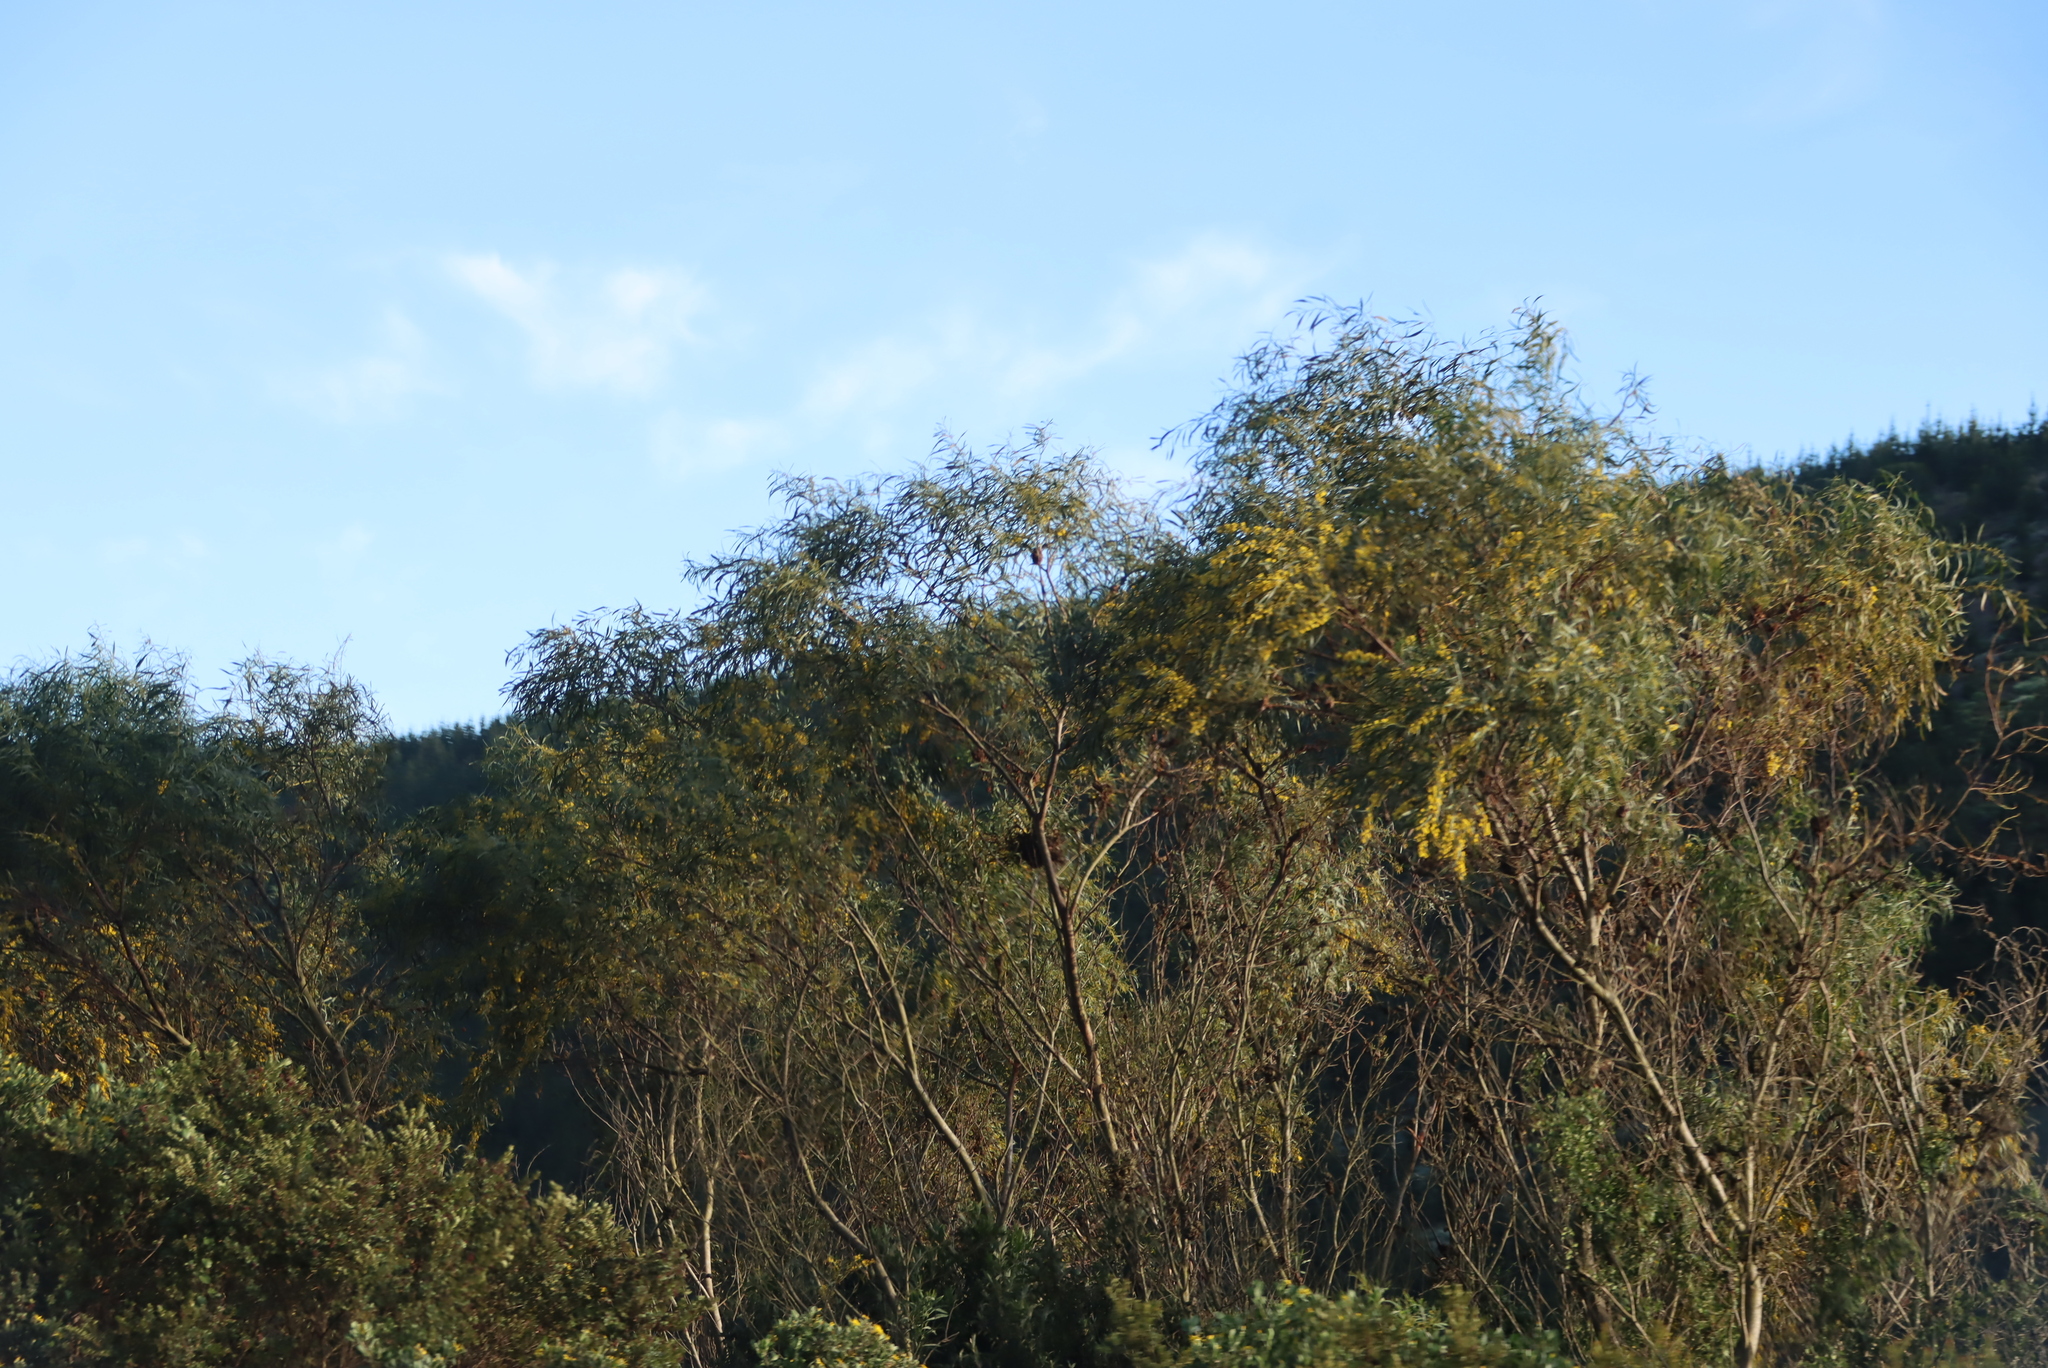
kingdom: Plantae
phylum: Tracheophyta
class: Magnoliopsida
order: Fabales
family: Fabaceae
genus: Acacia
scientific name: Acacia saligna
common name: Orange wattle
